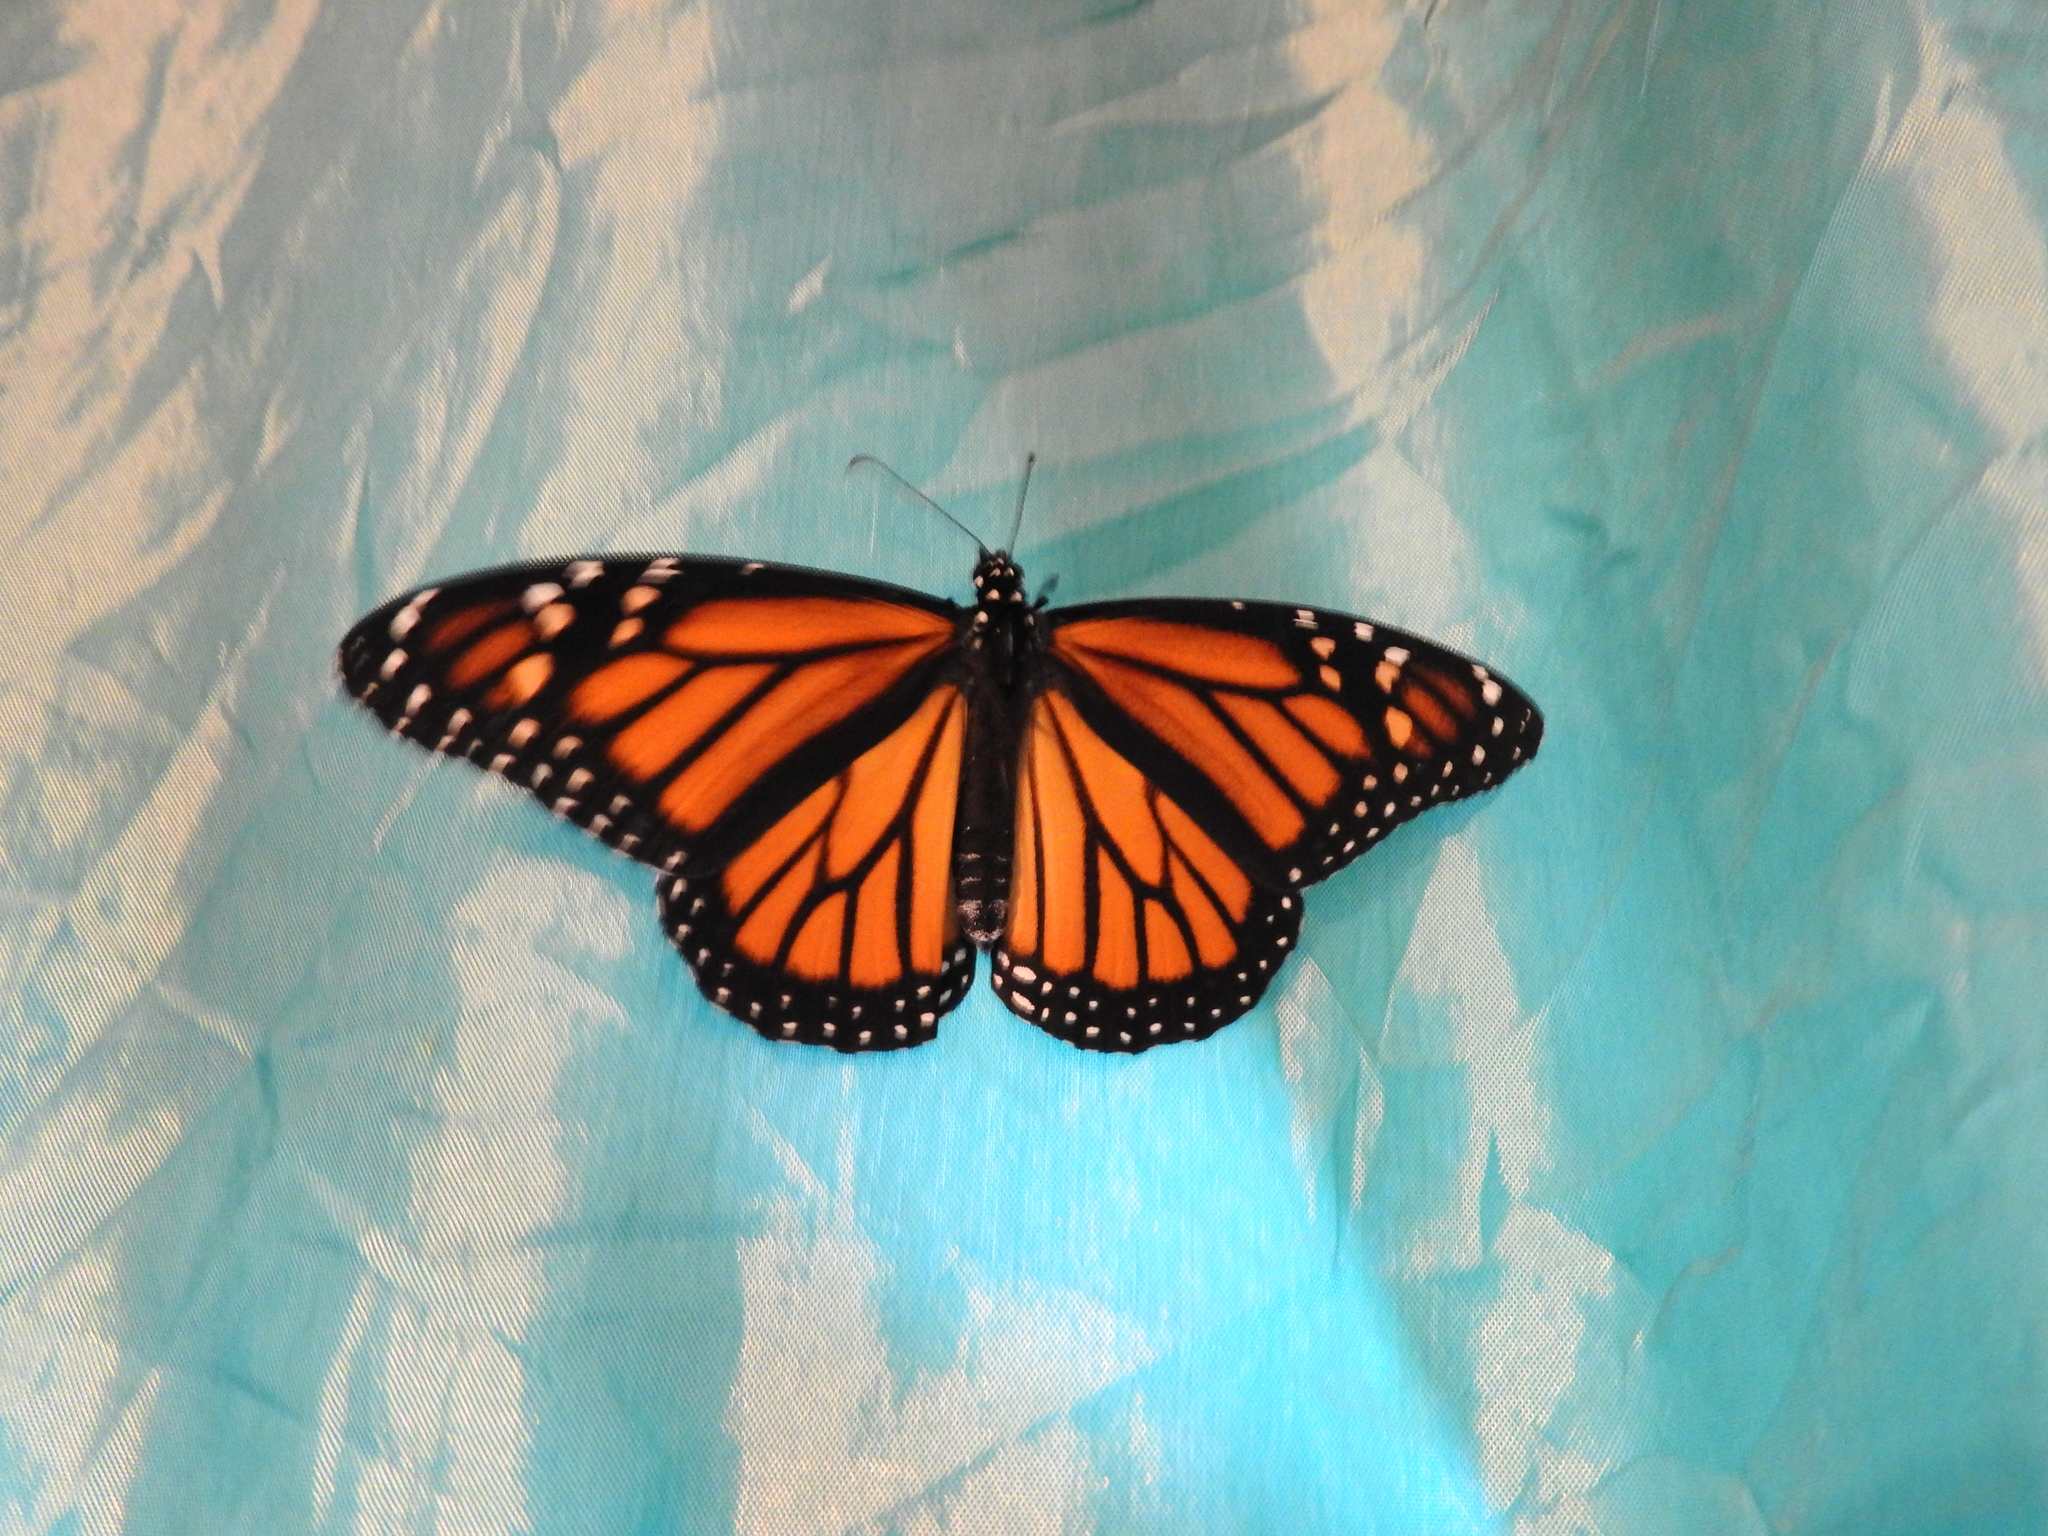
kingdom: Animalia
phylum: Arthropoda
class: Insecta
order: Lepidoptera
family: Nymphalidae
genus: Danaus
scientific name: Danaus plexippus
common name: Monarch
